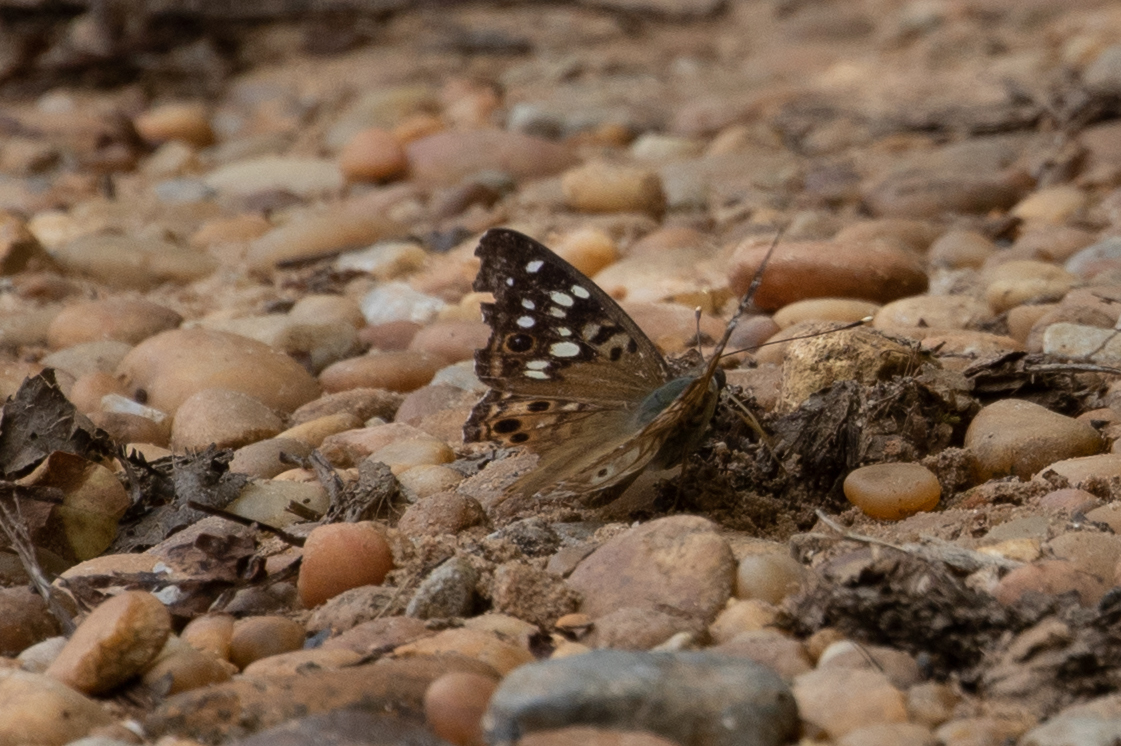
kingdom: Animalia
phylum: Arthropoda
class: Insecta
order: Lepidoptera
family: Nymphalidae
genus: Asterocampa
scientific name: Asterocampa celtis
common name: Hackberry emperor
